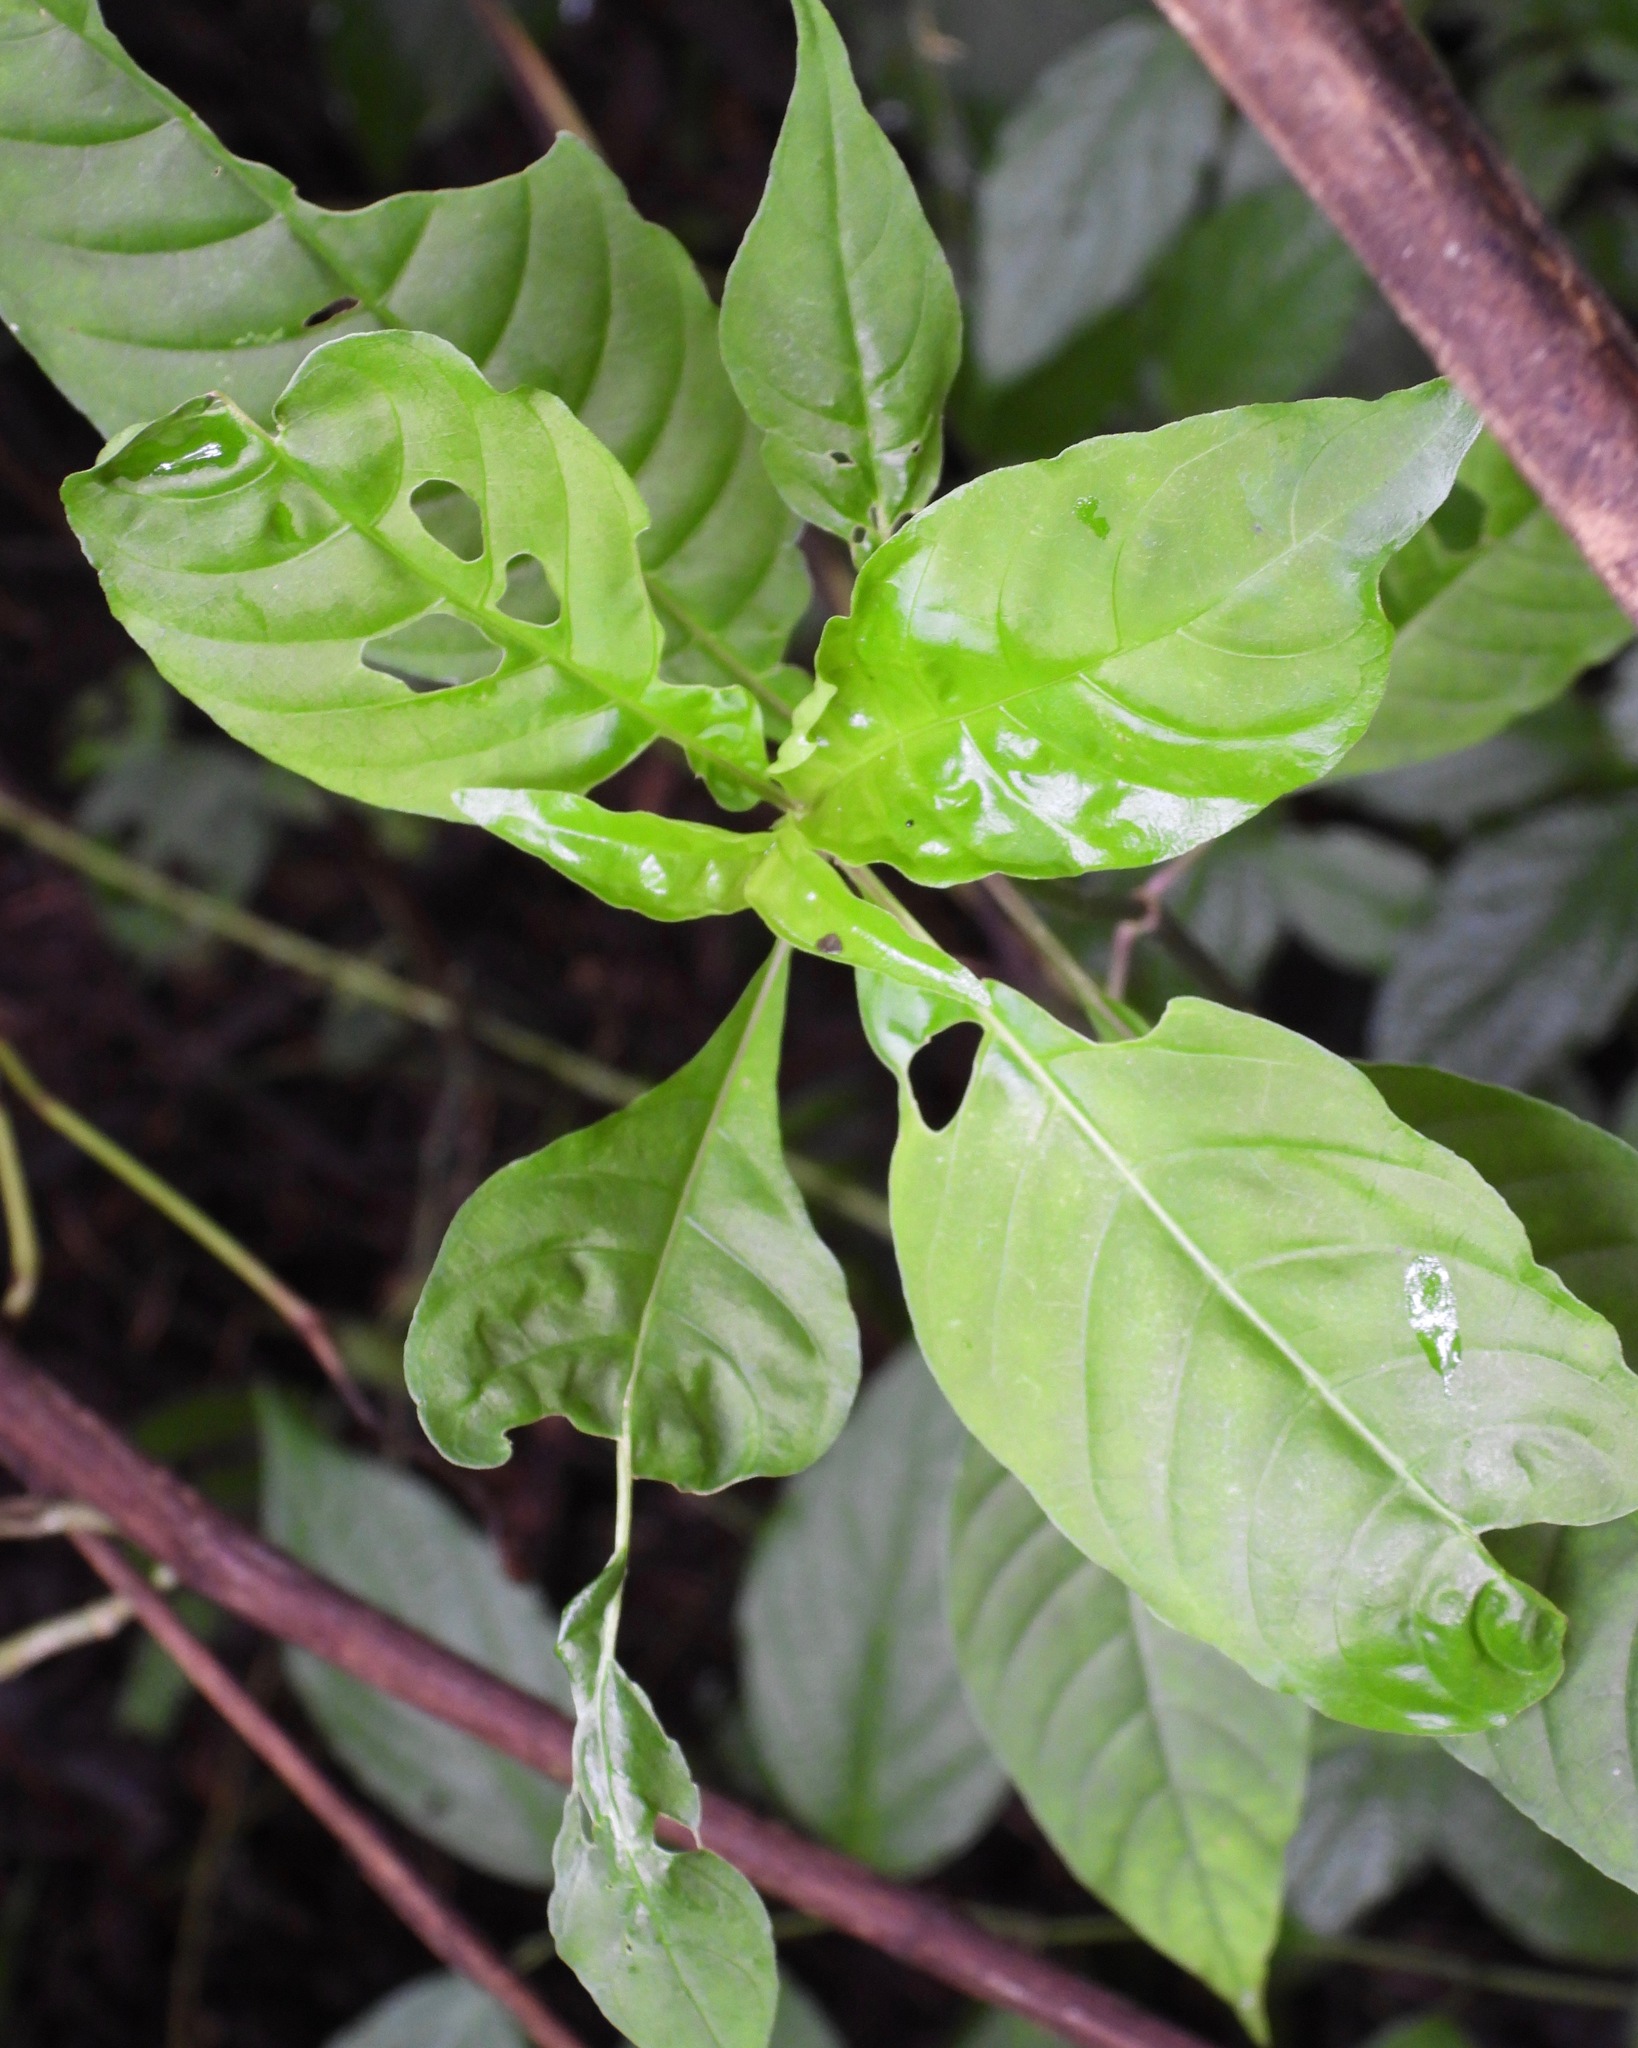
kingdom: Plantae
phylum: Tracheophyta
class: Magnoliopsida
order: Gentianales
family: Rubiaceae
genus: Palicourea
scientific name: Palicourea pubescens
